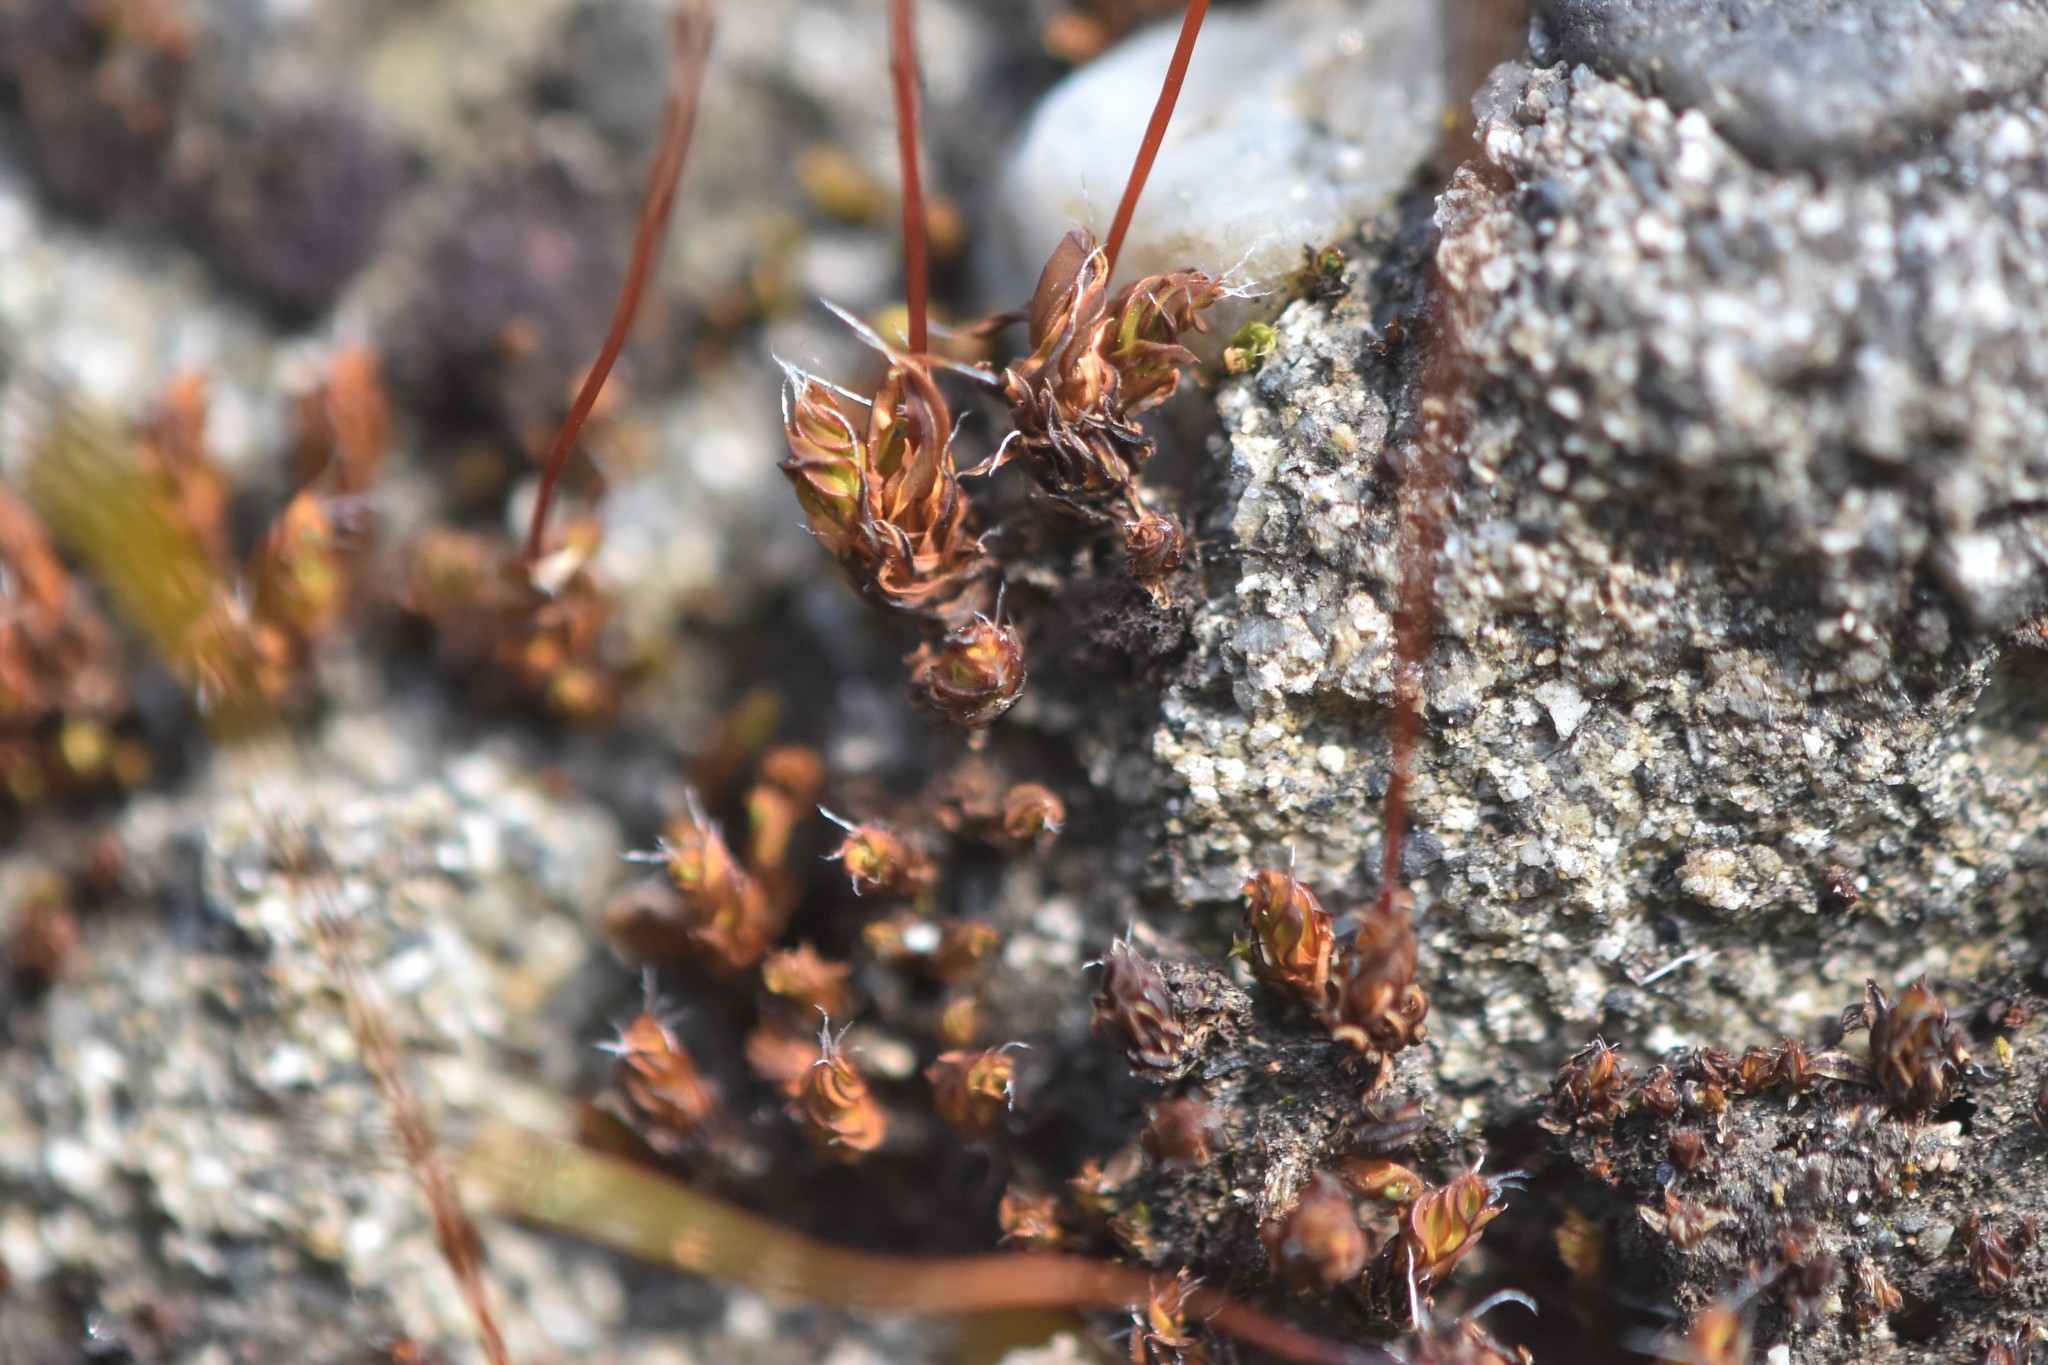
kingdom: Plantae
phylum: Bryophyta
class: Bryopsida
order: Pottiales
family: Pottiaceae
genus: Tortula
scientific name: Tortula muralis
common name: Wall screw-moss
